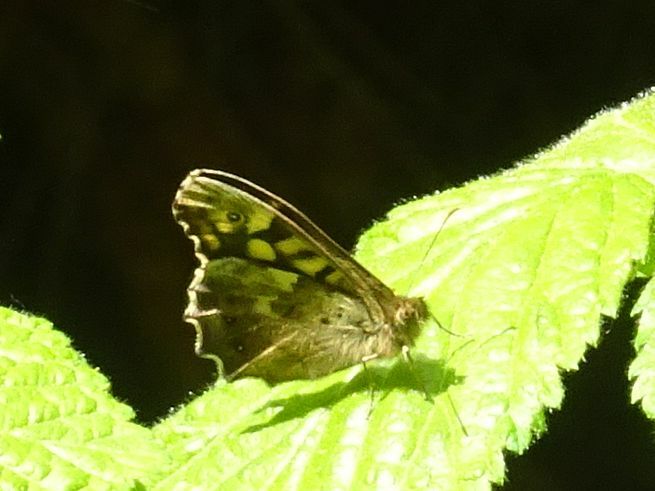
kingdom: Animalia
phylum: Arthropoda
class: Insecta
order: Lepidoptera
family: Nymphalidae
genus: Pararge
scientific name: Pararge aegeria
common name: Speckled wood
